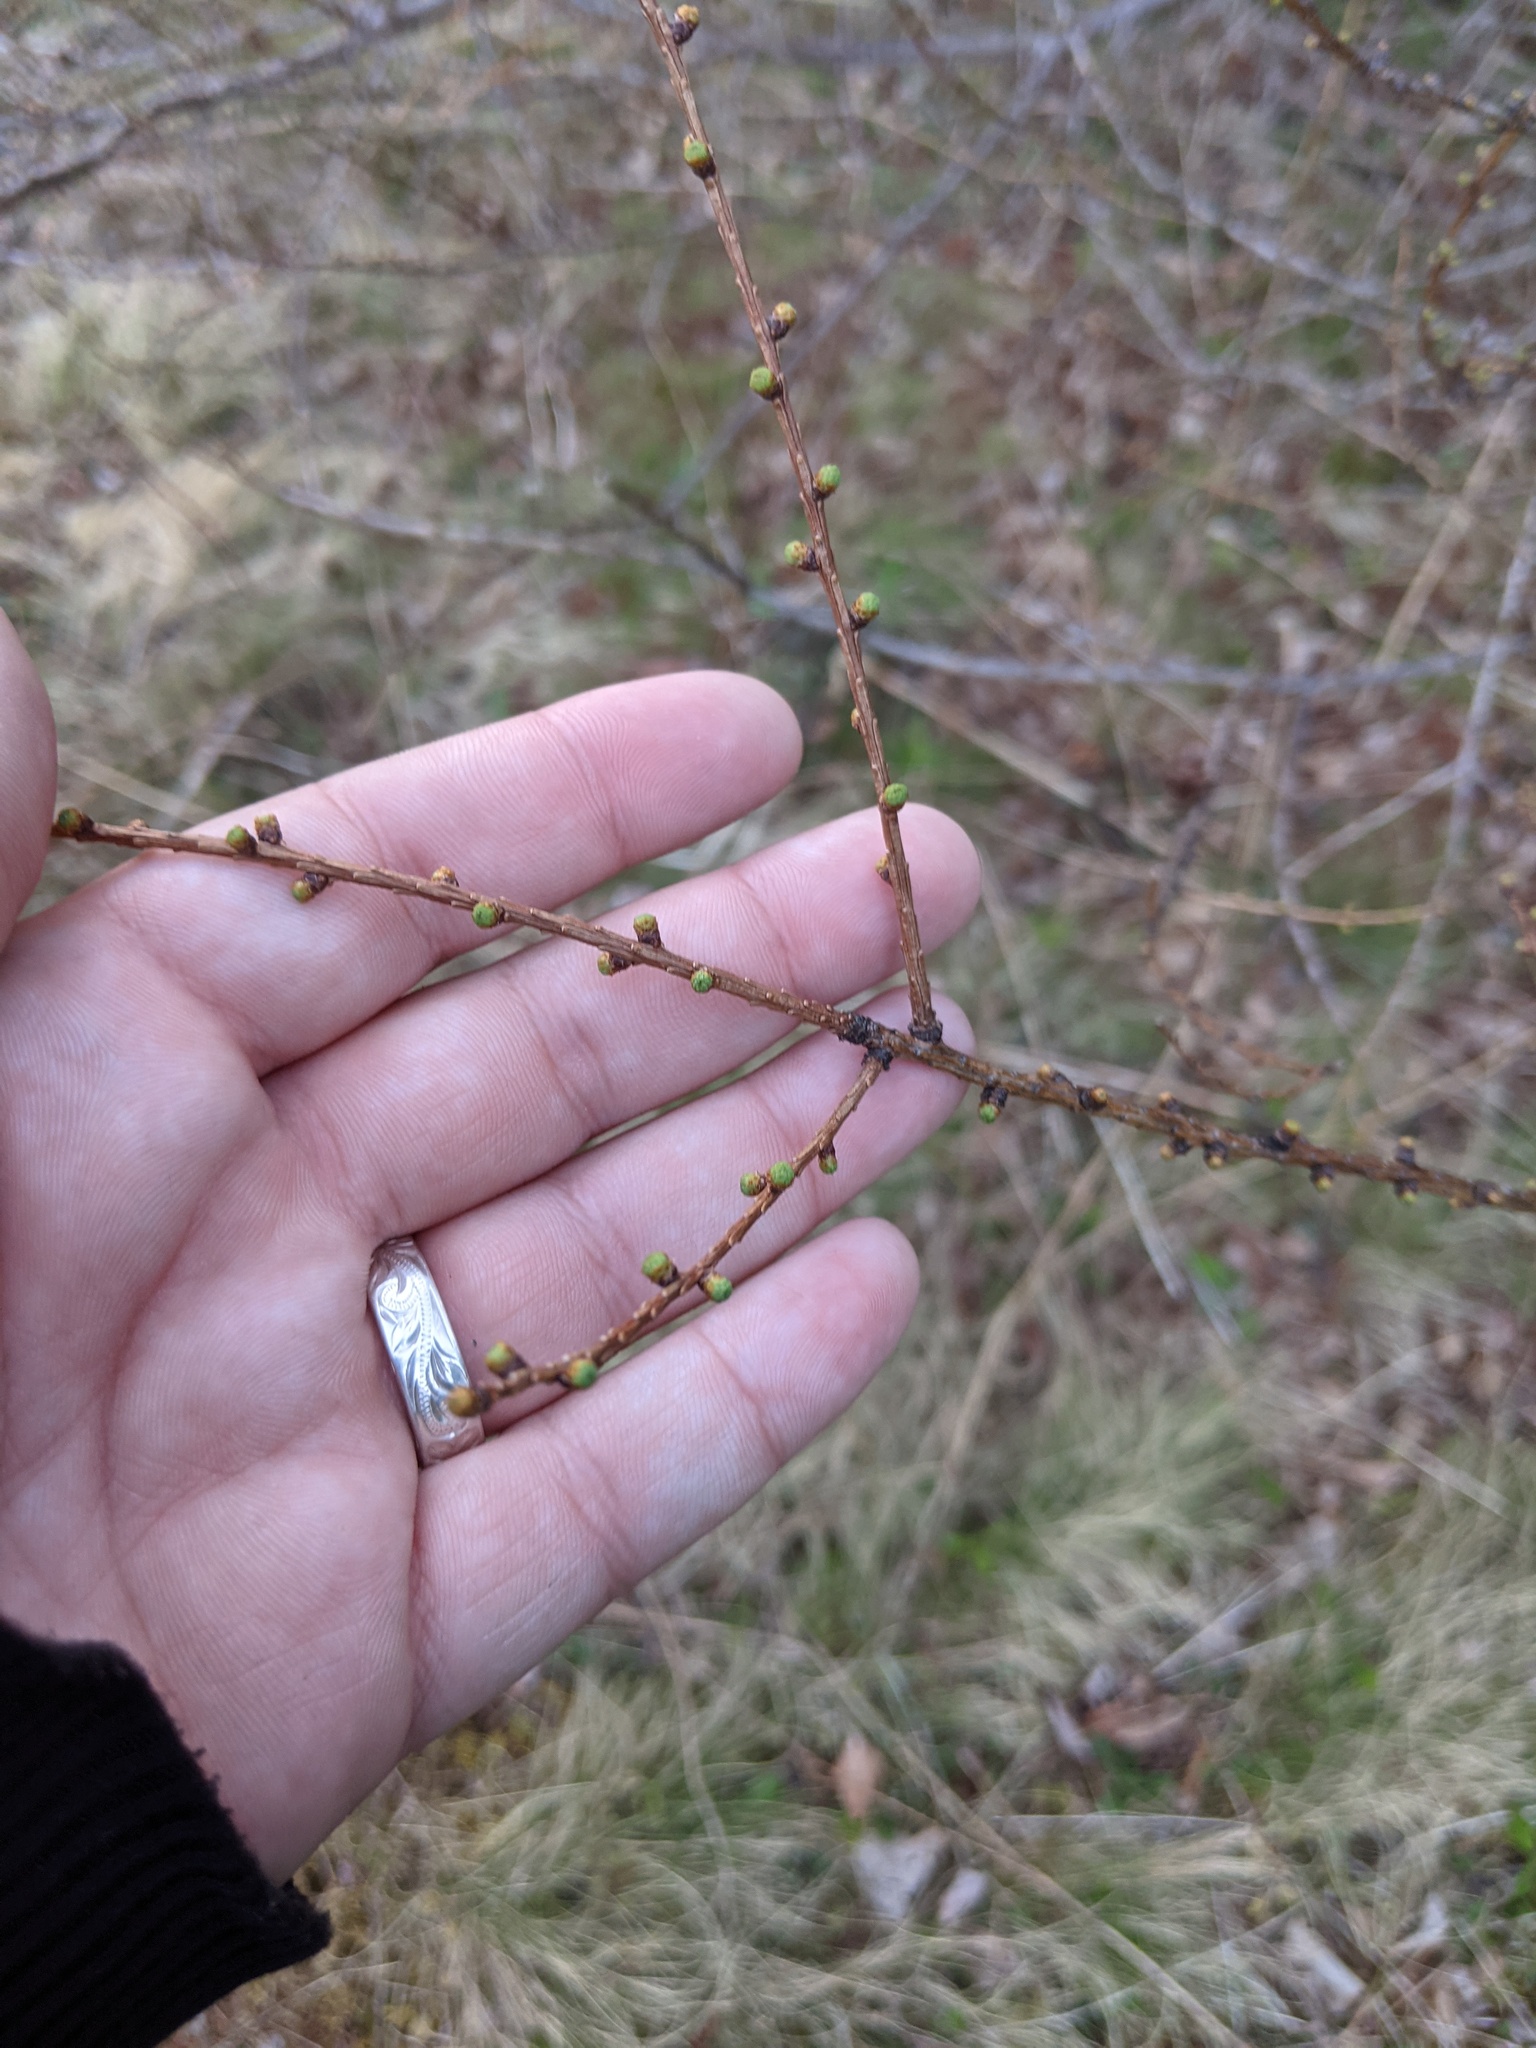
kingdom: Plantae
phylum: Tracheophyta
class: Pinopsida
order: Pinales
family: Pinaceae
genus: Larix
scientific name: Larix laricina
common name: American larch
